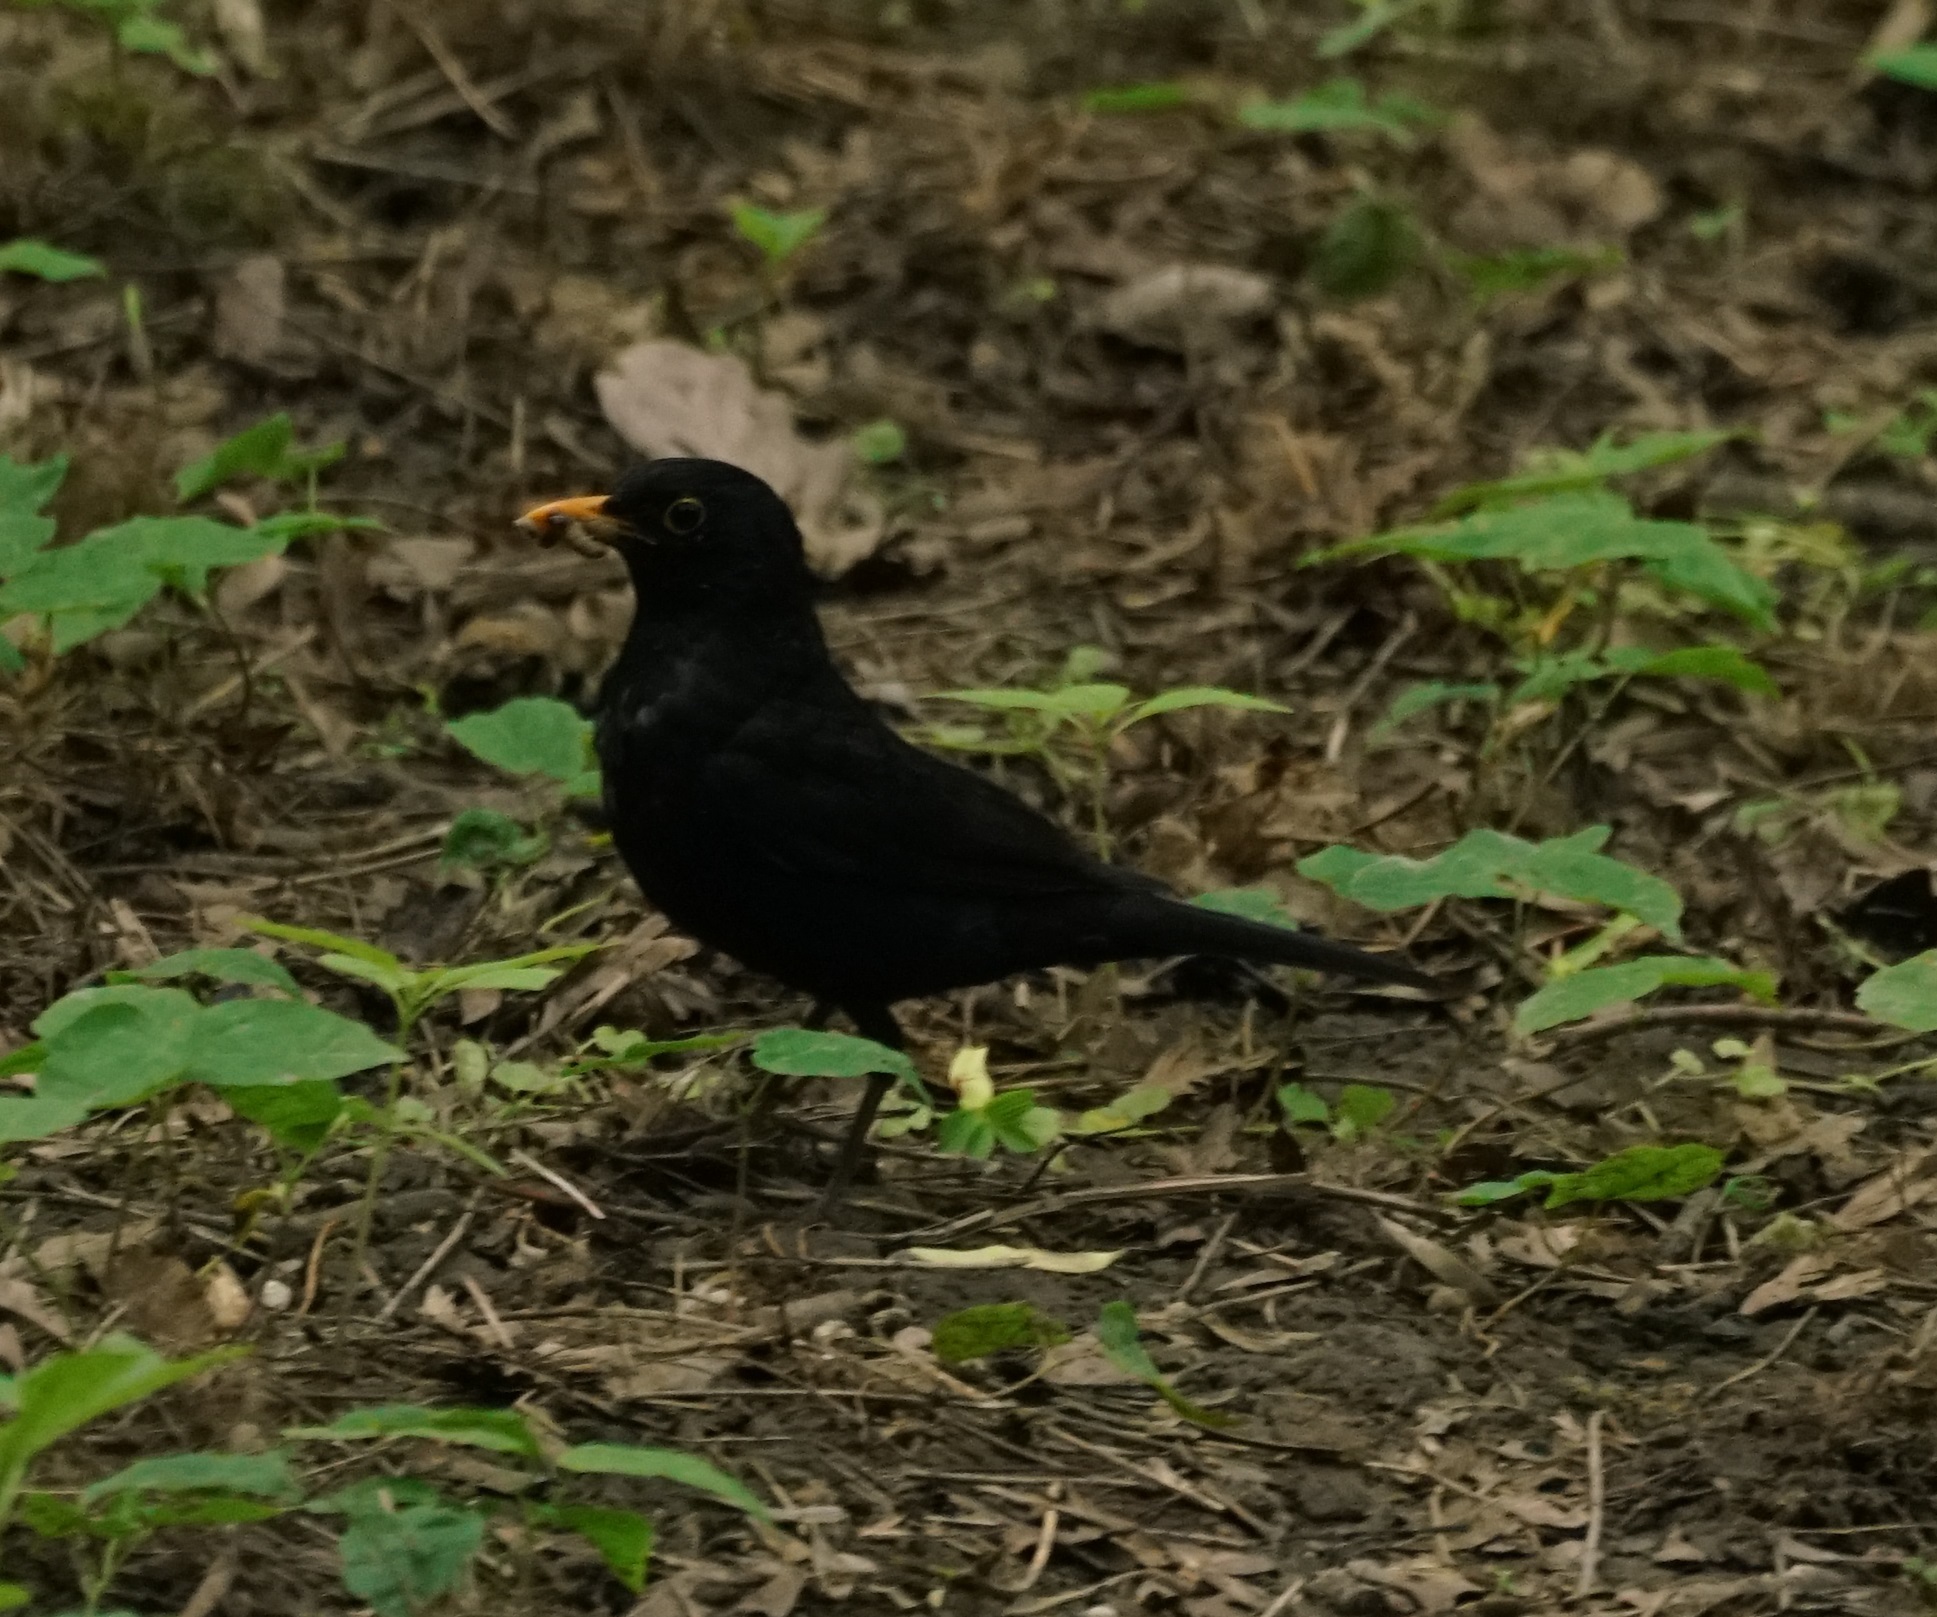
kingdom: Animalia
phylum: Chordata
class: Aves
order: Passeriformes
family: Turdidae
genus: Turdus
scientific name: Turdus merula
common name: Common blackbird
